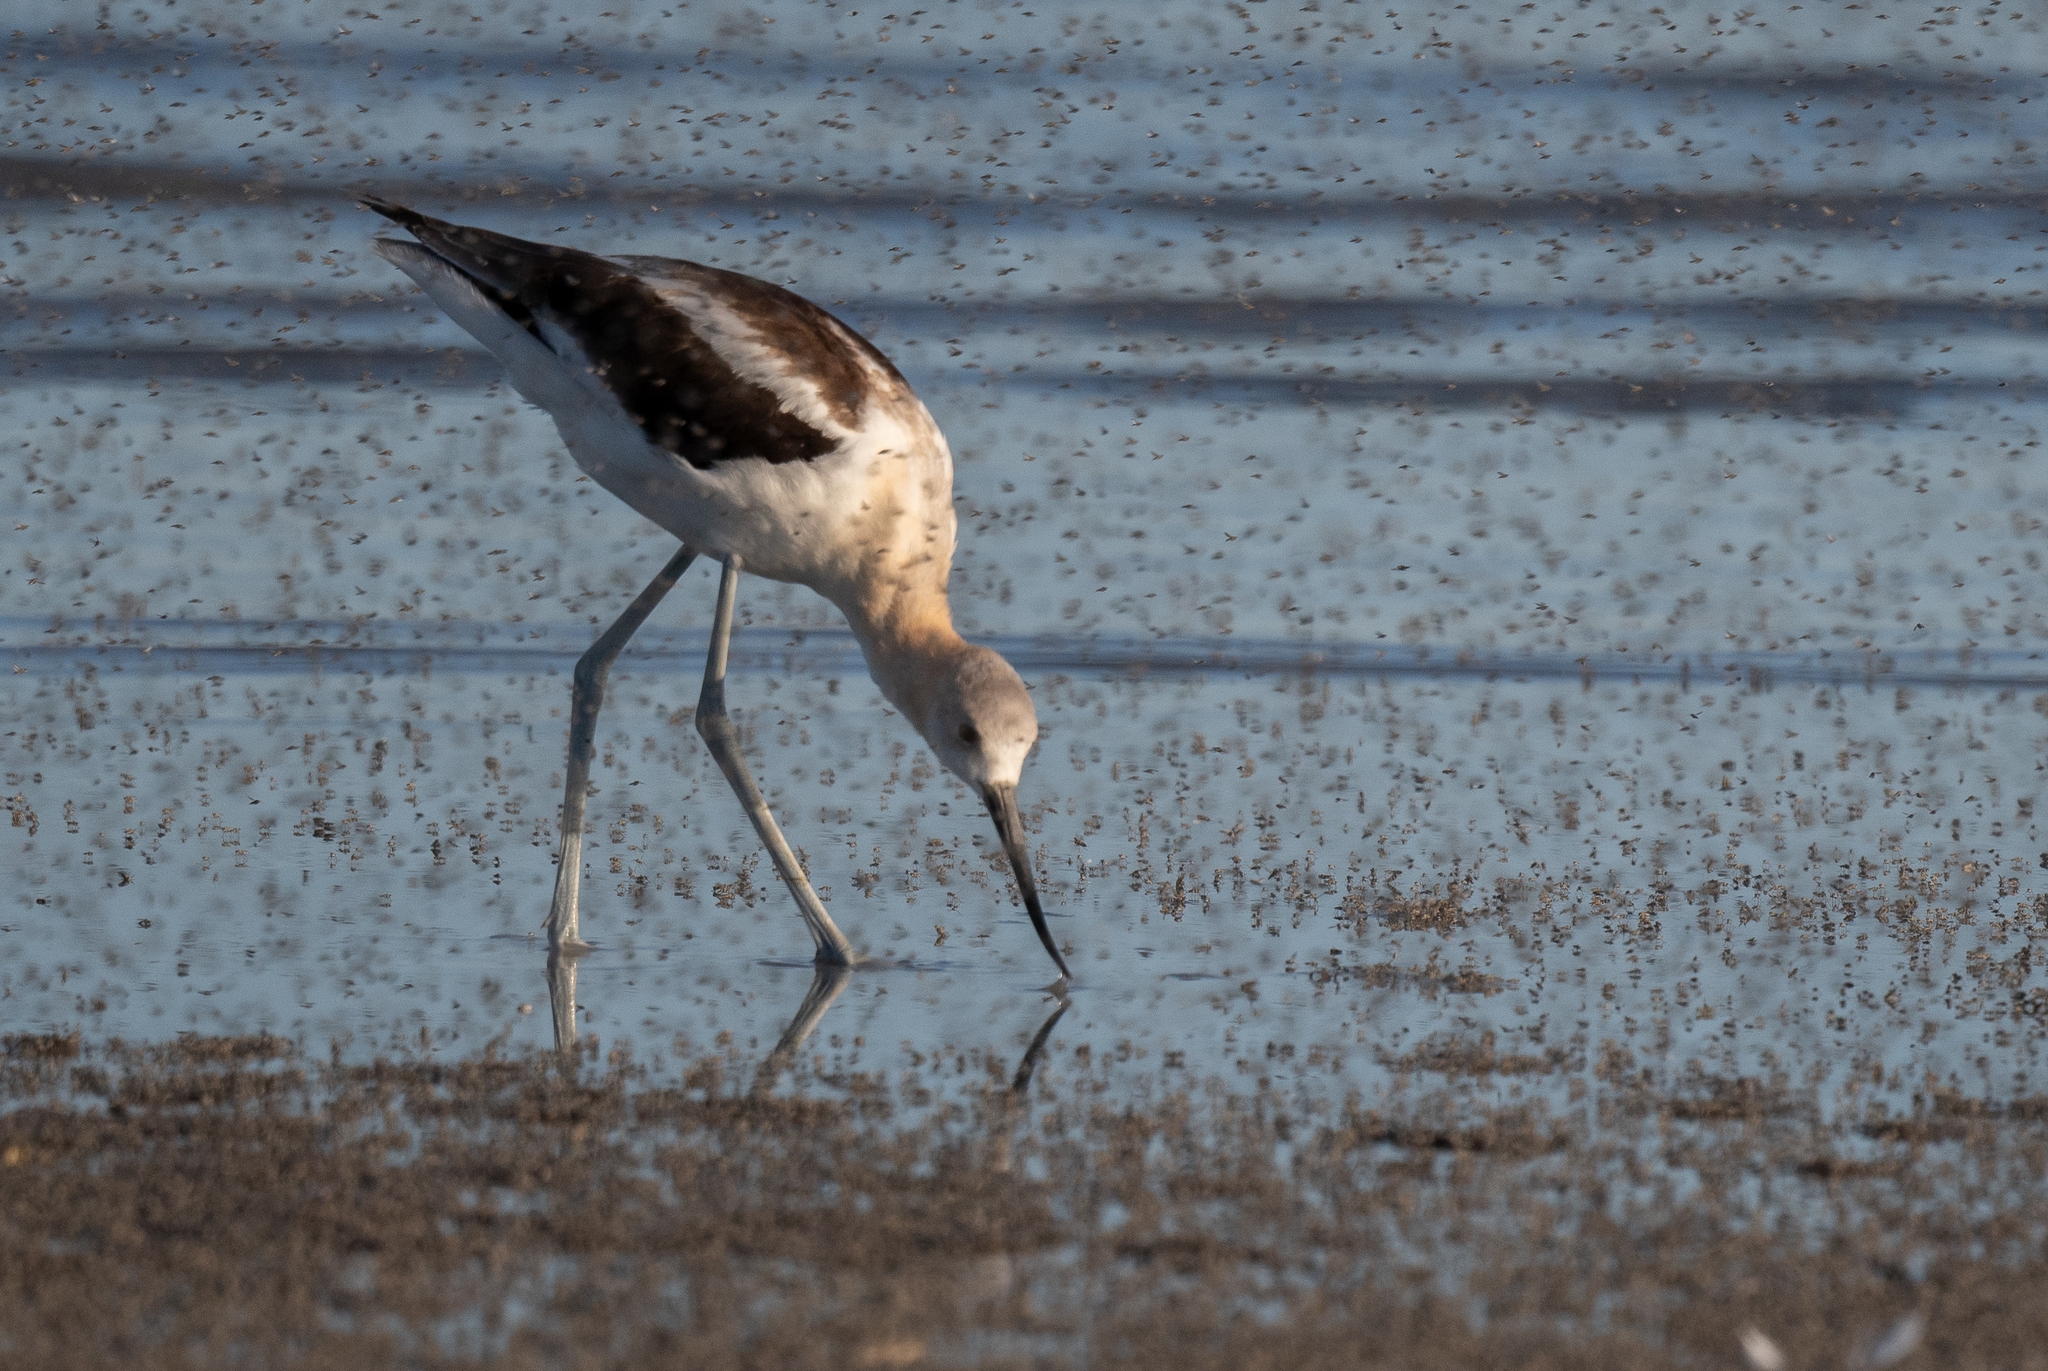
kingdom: Animalia
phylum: Chordata
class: Aves
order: Charadriiformes
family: Recurvirostridae
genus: Recurvirostra
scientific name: Recurvirostra americana
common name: American avocet
